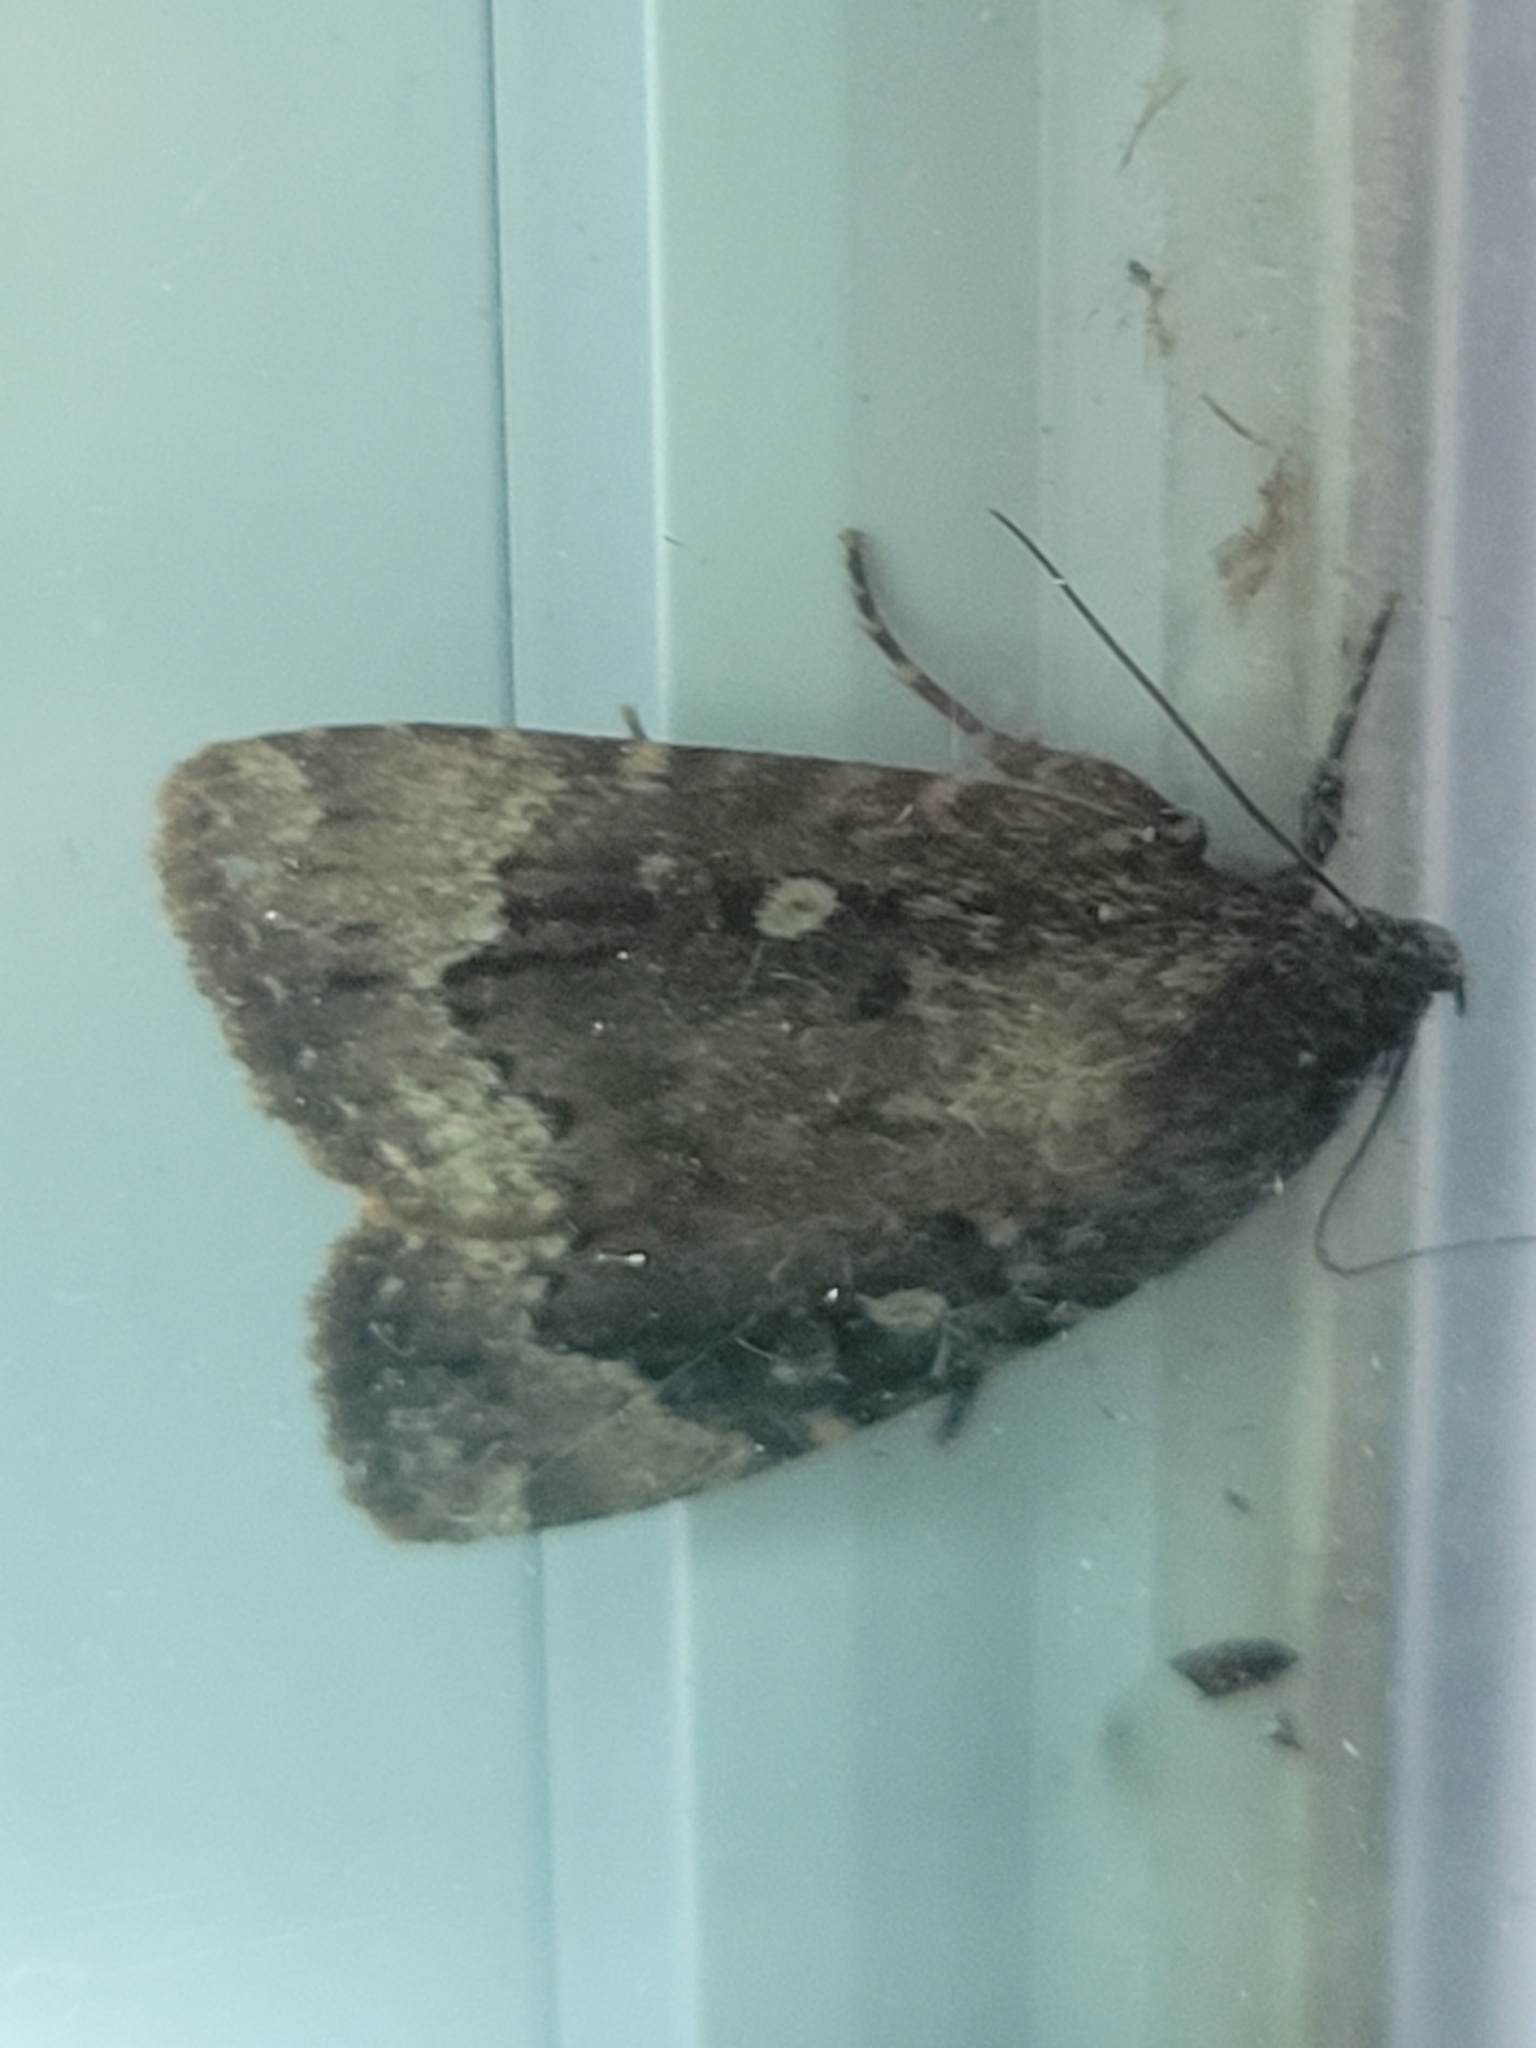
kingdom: Animalia
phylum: Arthropoda
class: Insecta
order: Lepidoptera
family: Noctuidae
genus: Amphipyra
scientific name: Amphipyra pyramidoides
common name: American copper underwing
